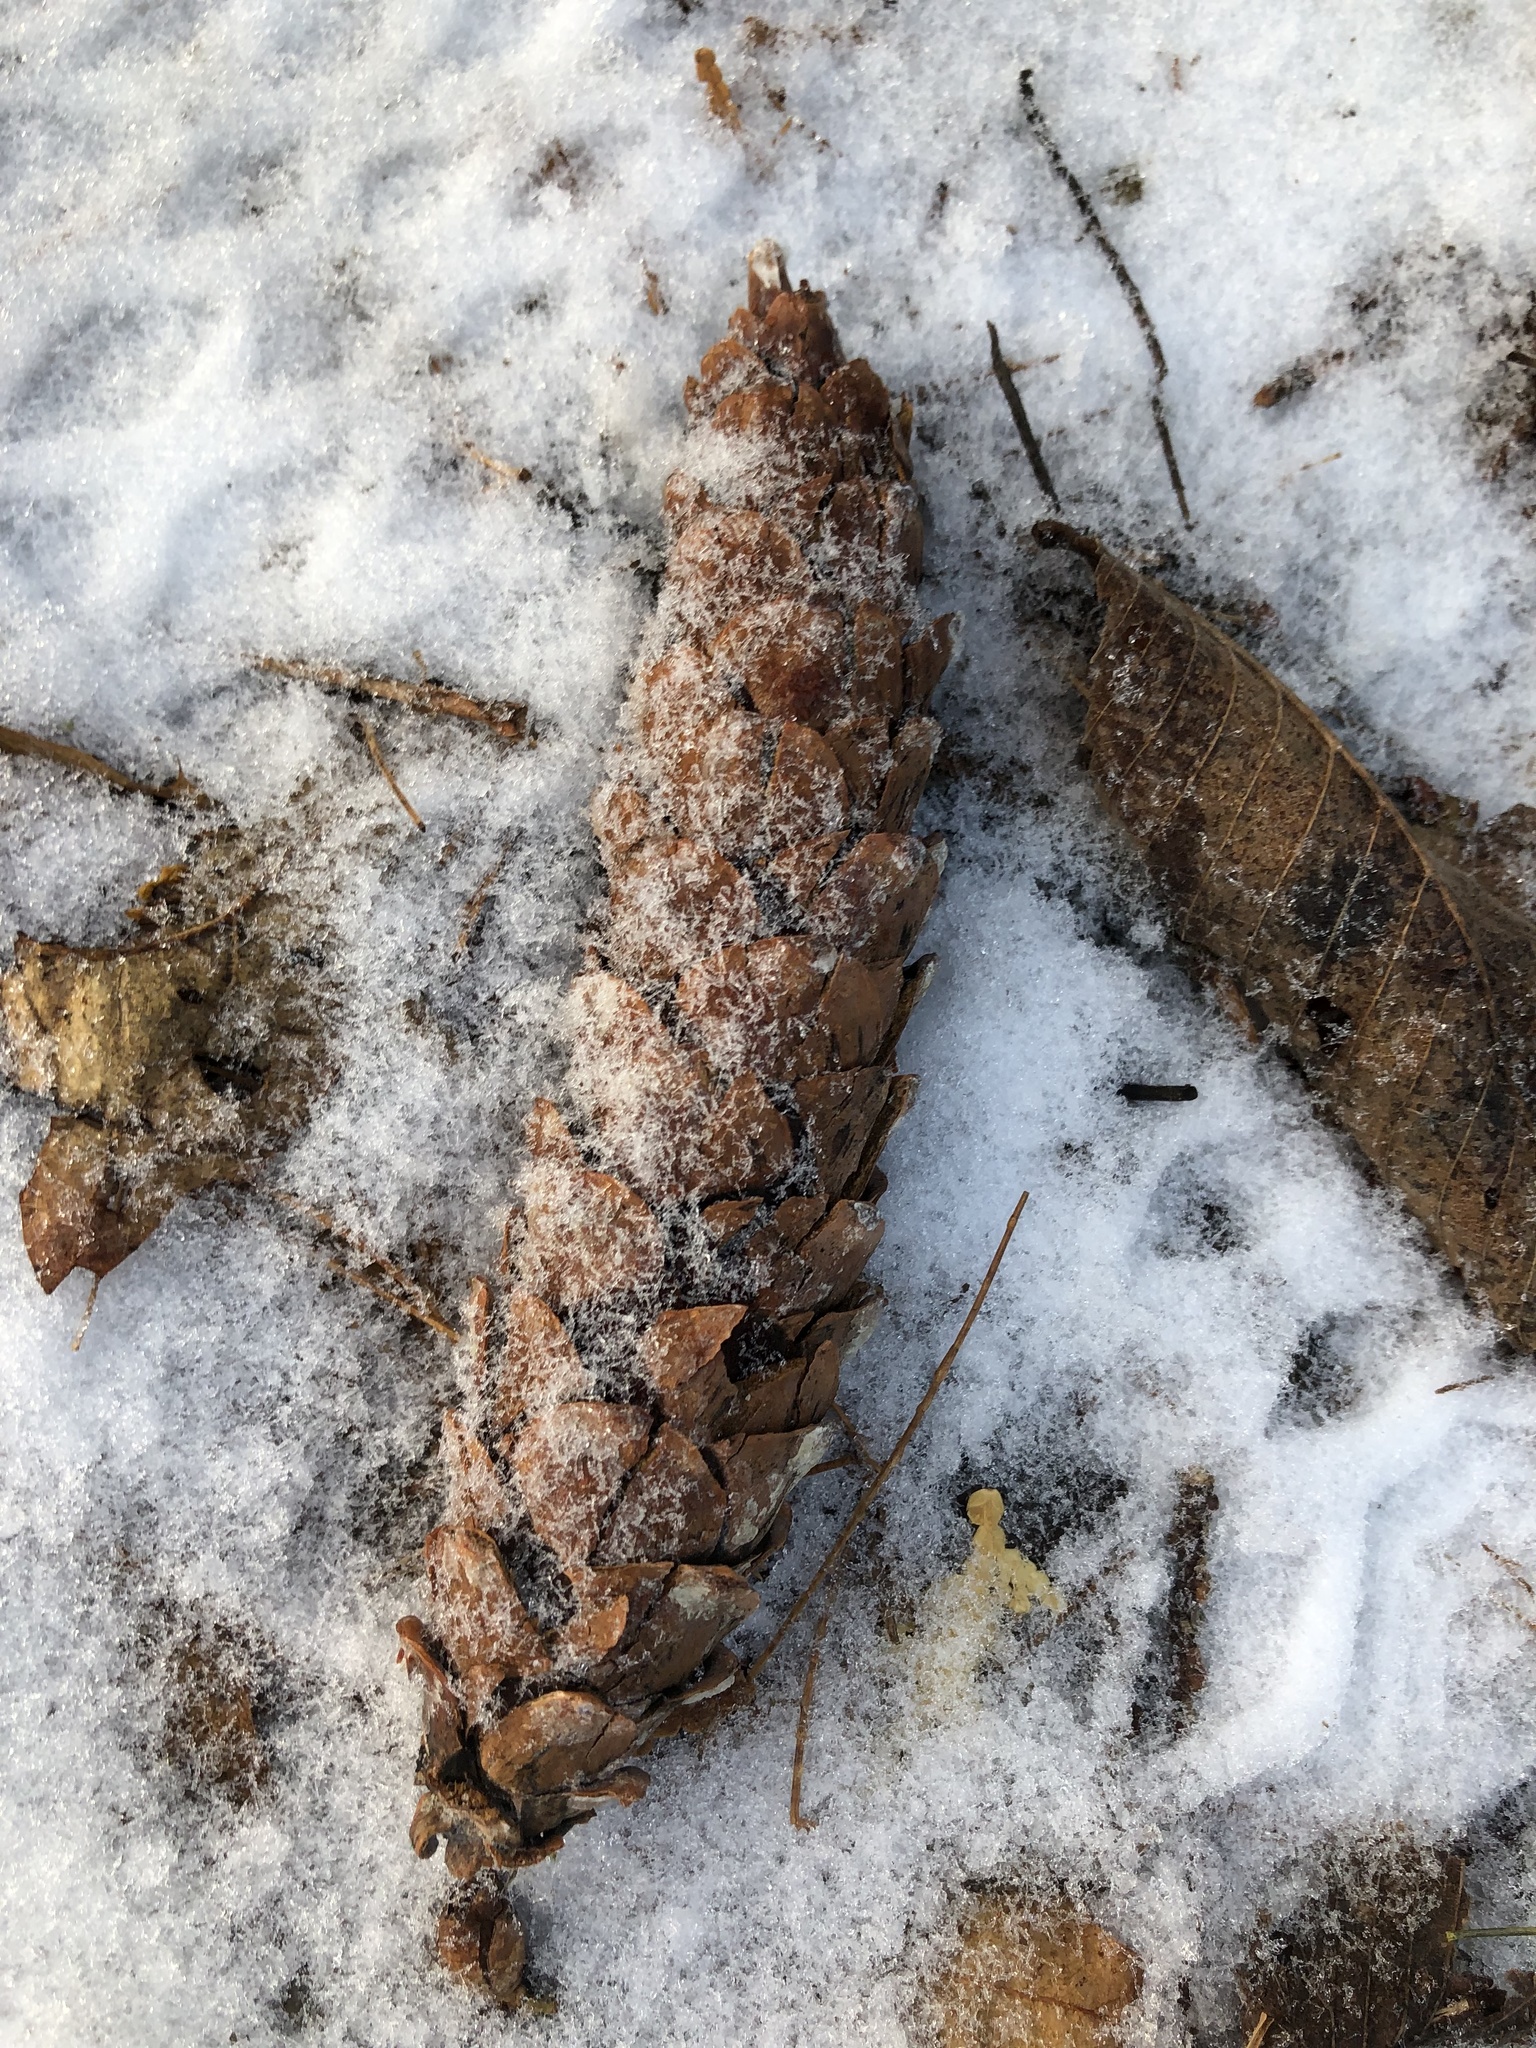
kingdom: Plantae
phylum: Tracheophyta
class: Pinopsida
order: Pinales
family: Pinaceae
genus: Pinus
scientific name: Pinus strobus
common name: Weymouth pine
